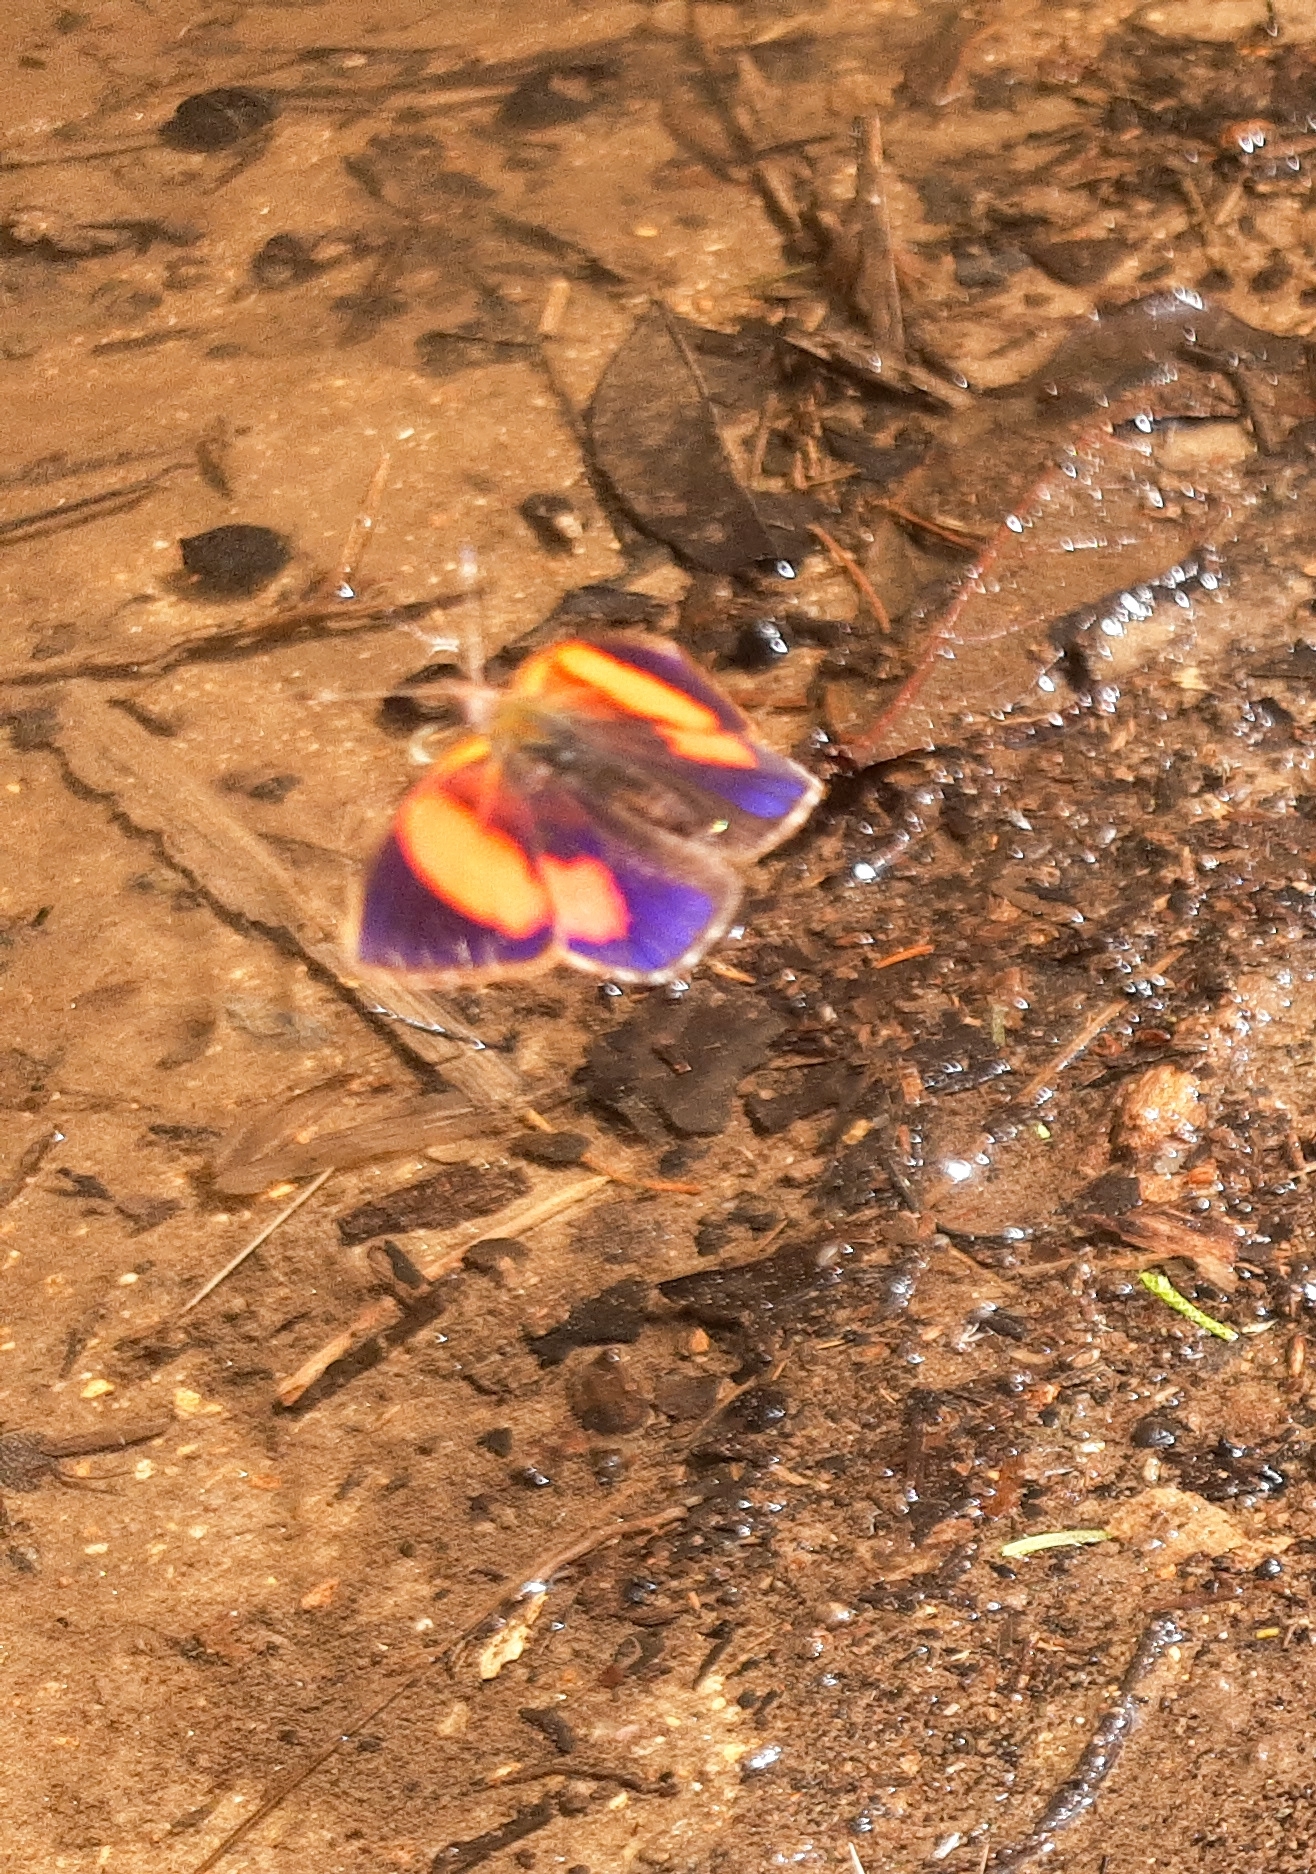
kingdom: Animalia
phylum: Arthropoda
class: Insecta
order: Lepidoptera
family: Nymphalidae
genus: Haematera
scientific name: Haematera pyrame
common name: Blind eighty-eight
